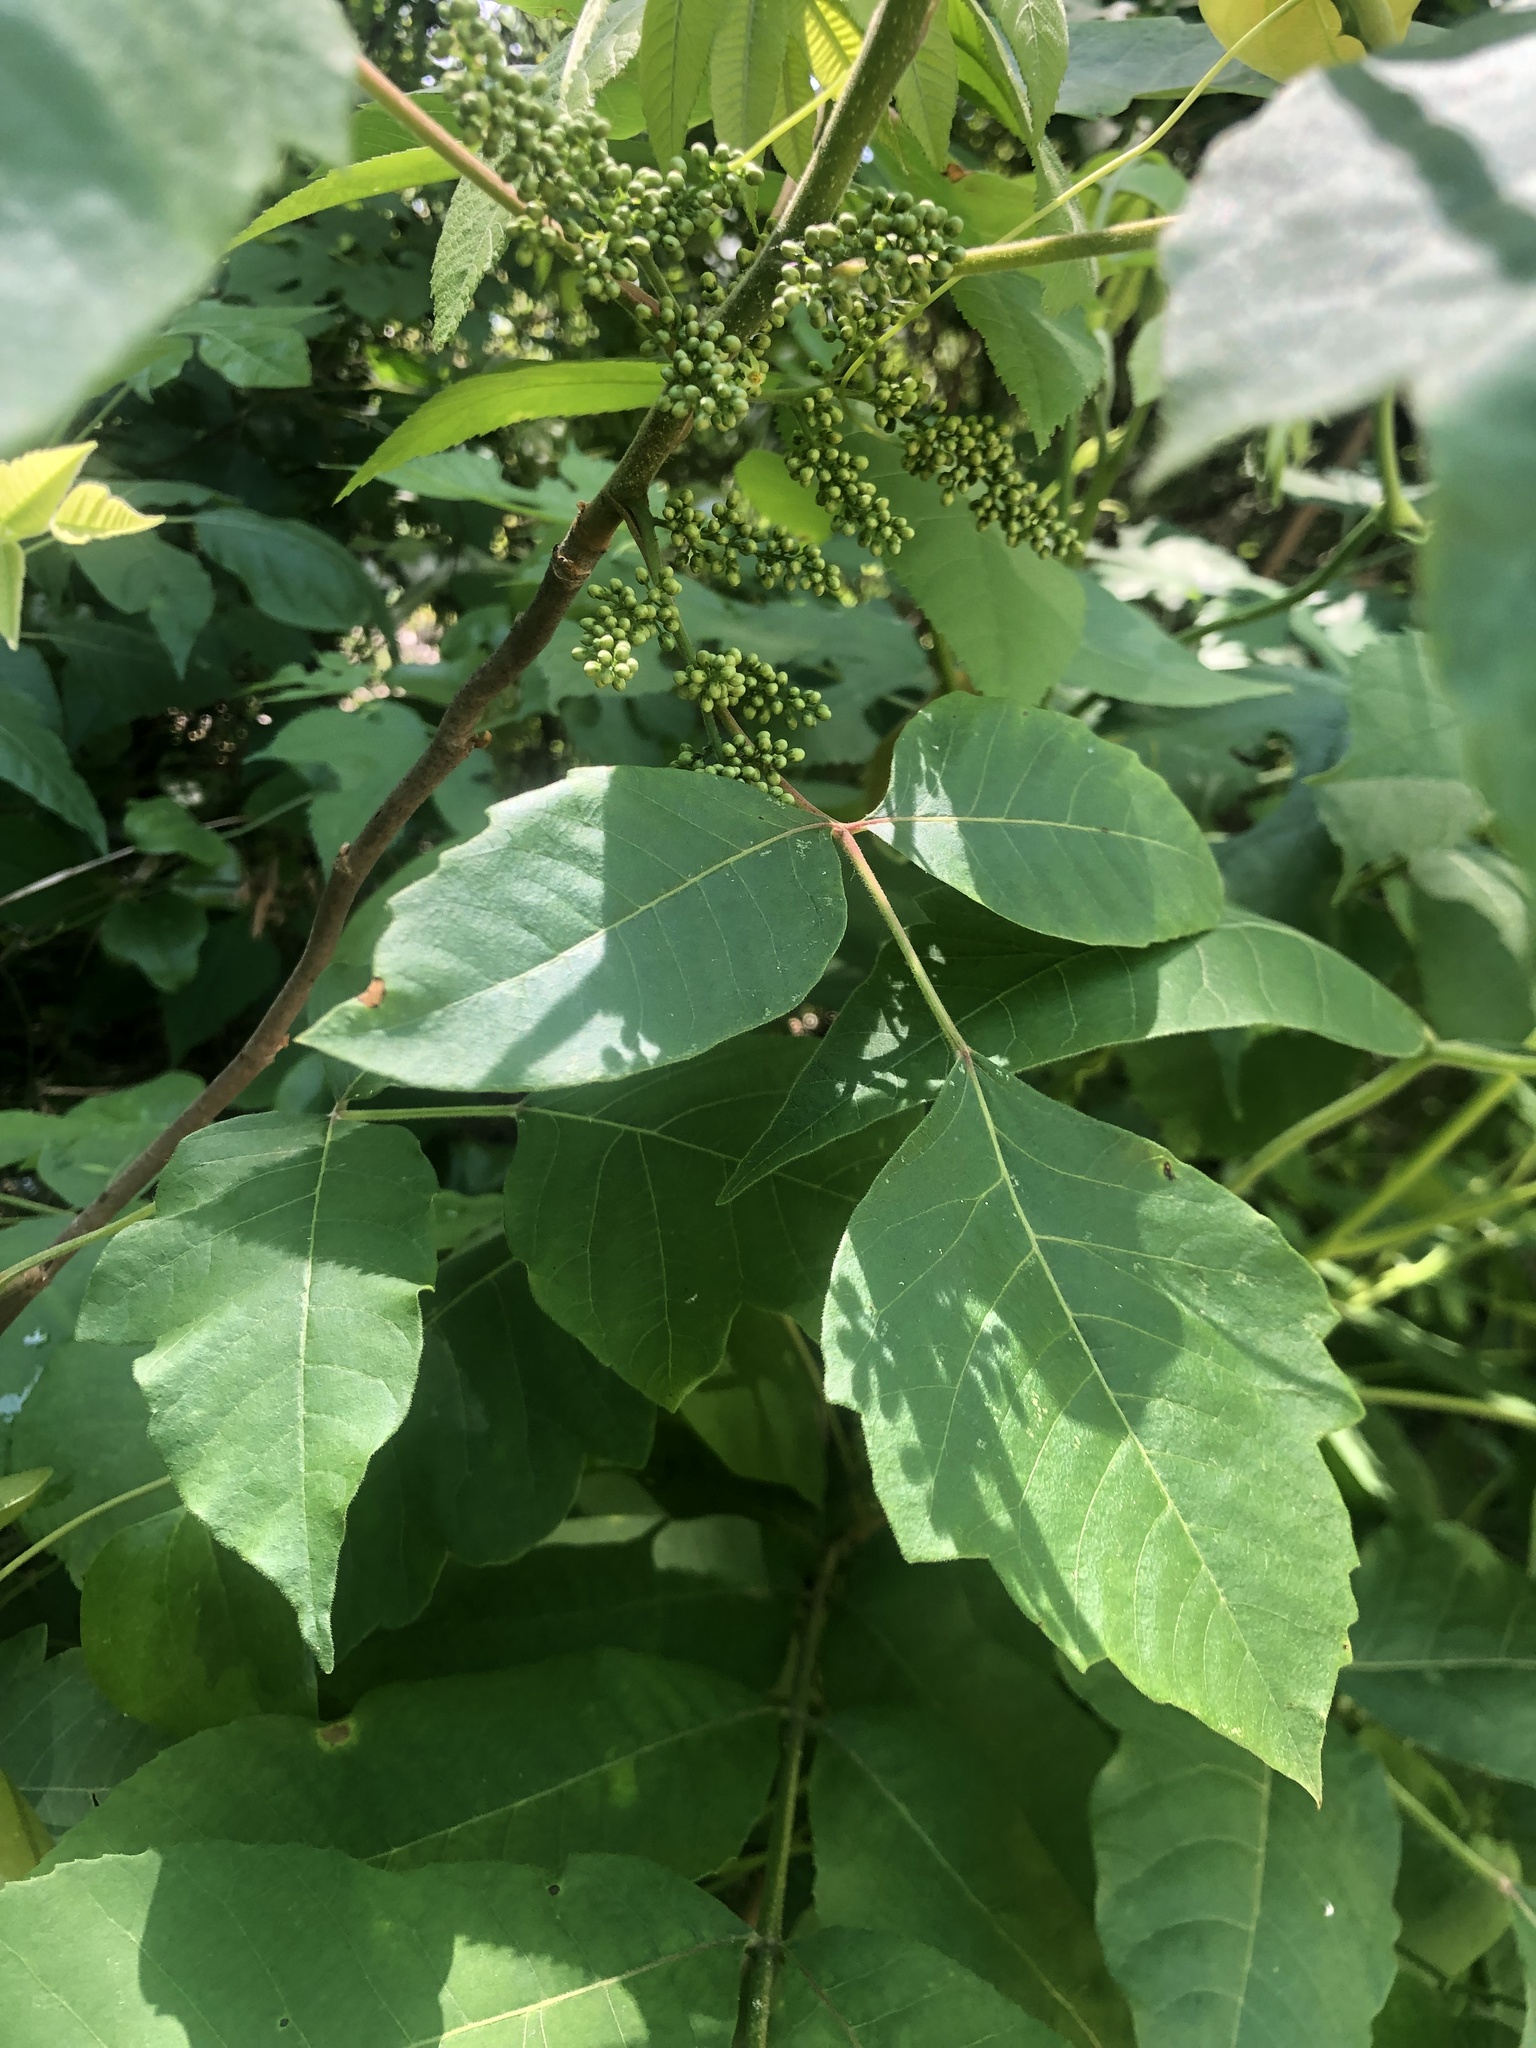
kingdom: Plantae
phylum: Tracheophyta
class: Magnoliopsida
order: Sapindales
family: Anacardiaceae
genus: Toxicodendron
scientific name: Toxicodendron radicans
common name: Poison ivy
